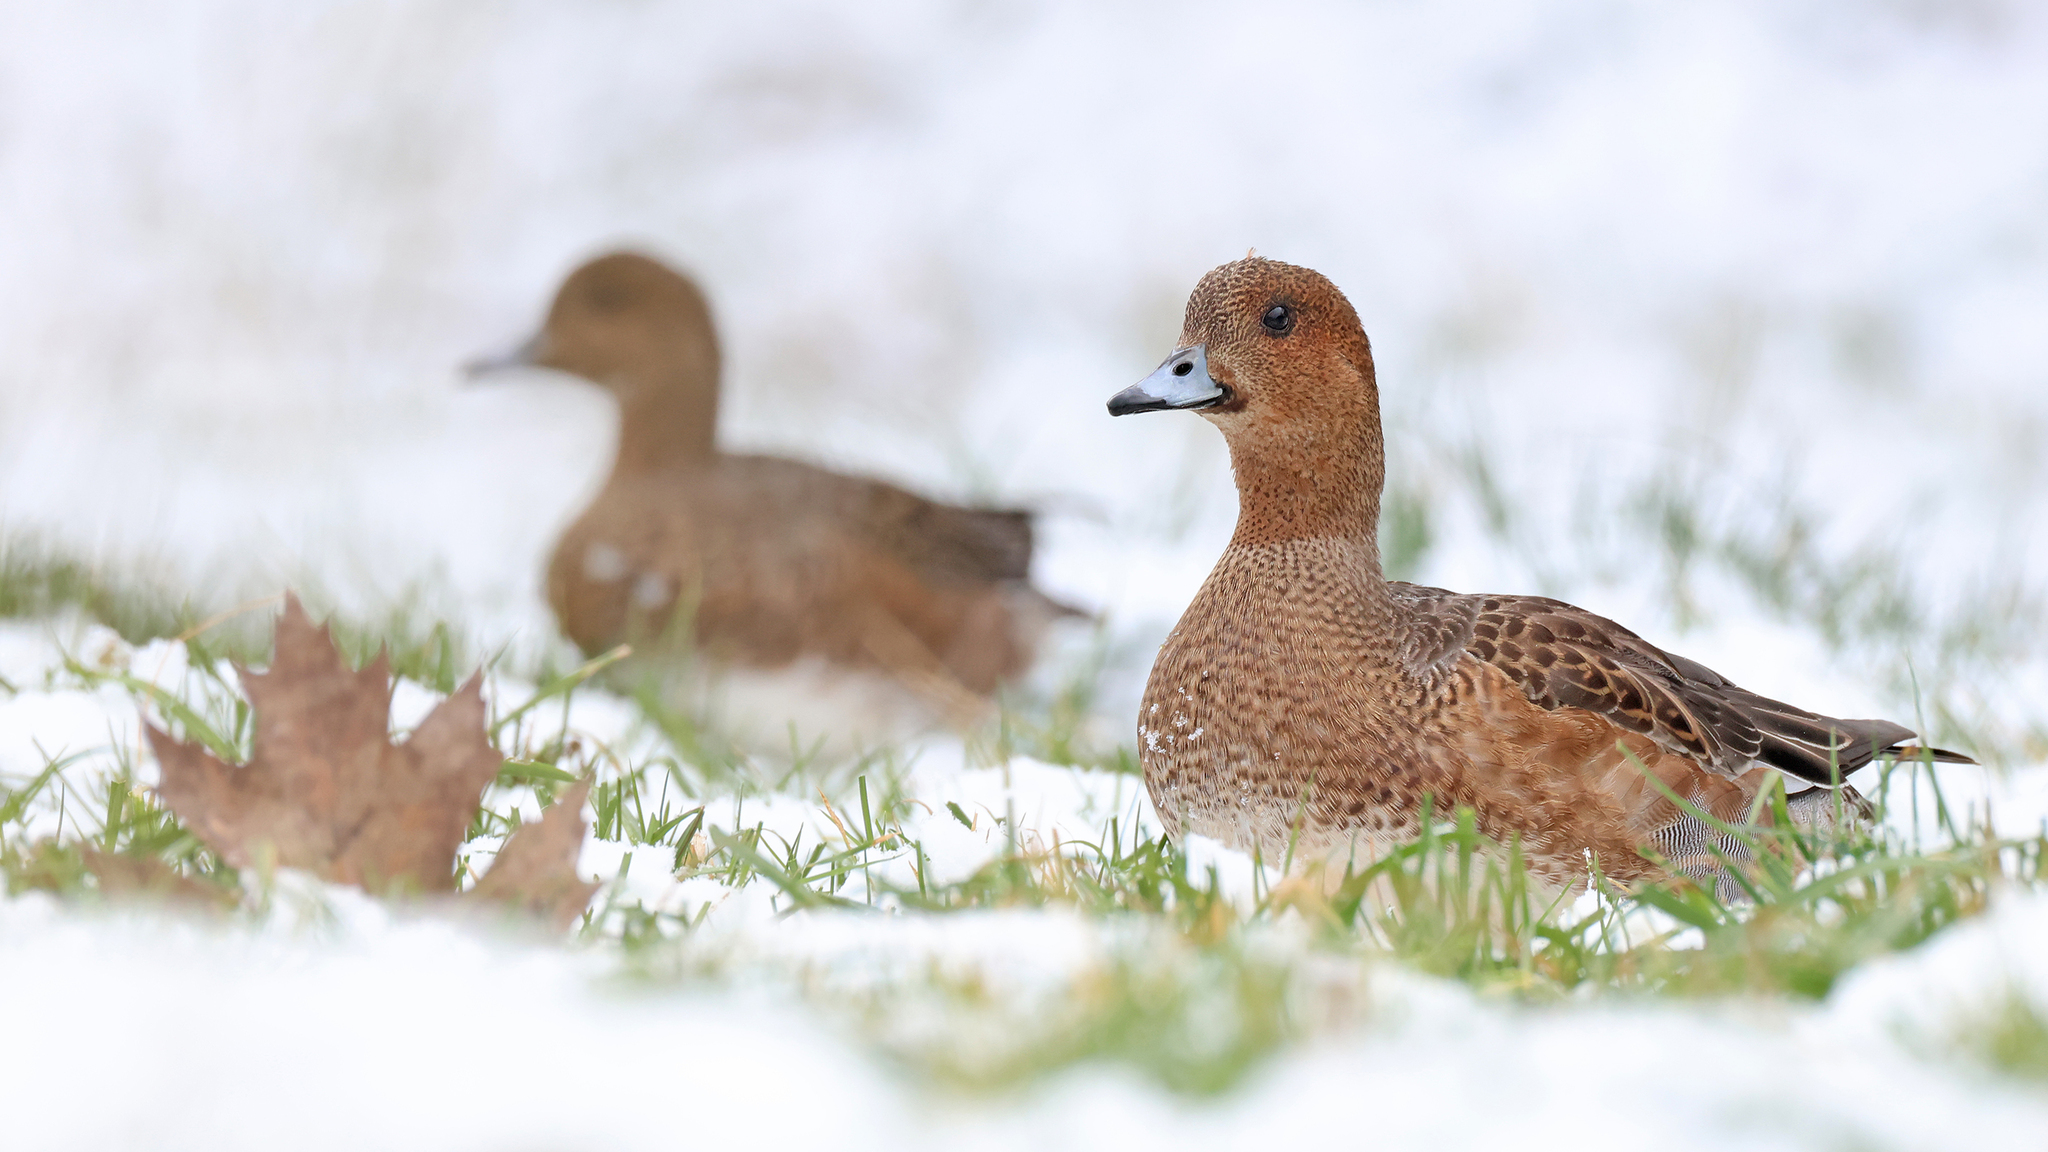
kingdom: Animalia
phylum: Chordata
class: Aves
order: Anseriformes
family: Anatidae
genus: Mareca
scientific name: Mareca penelope
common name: Eurasian wigeon
